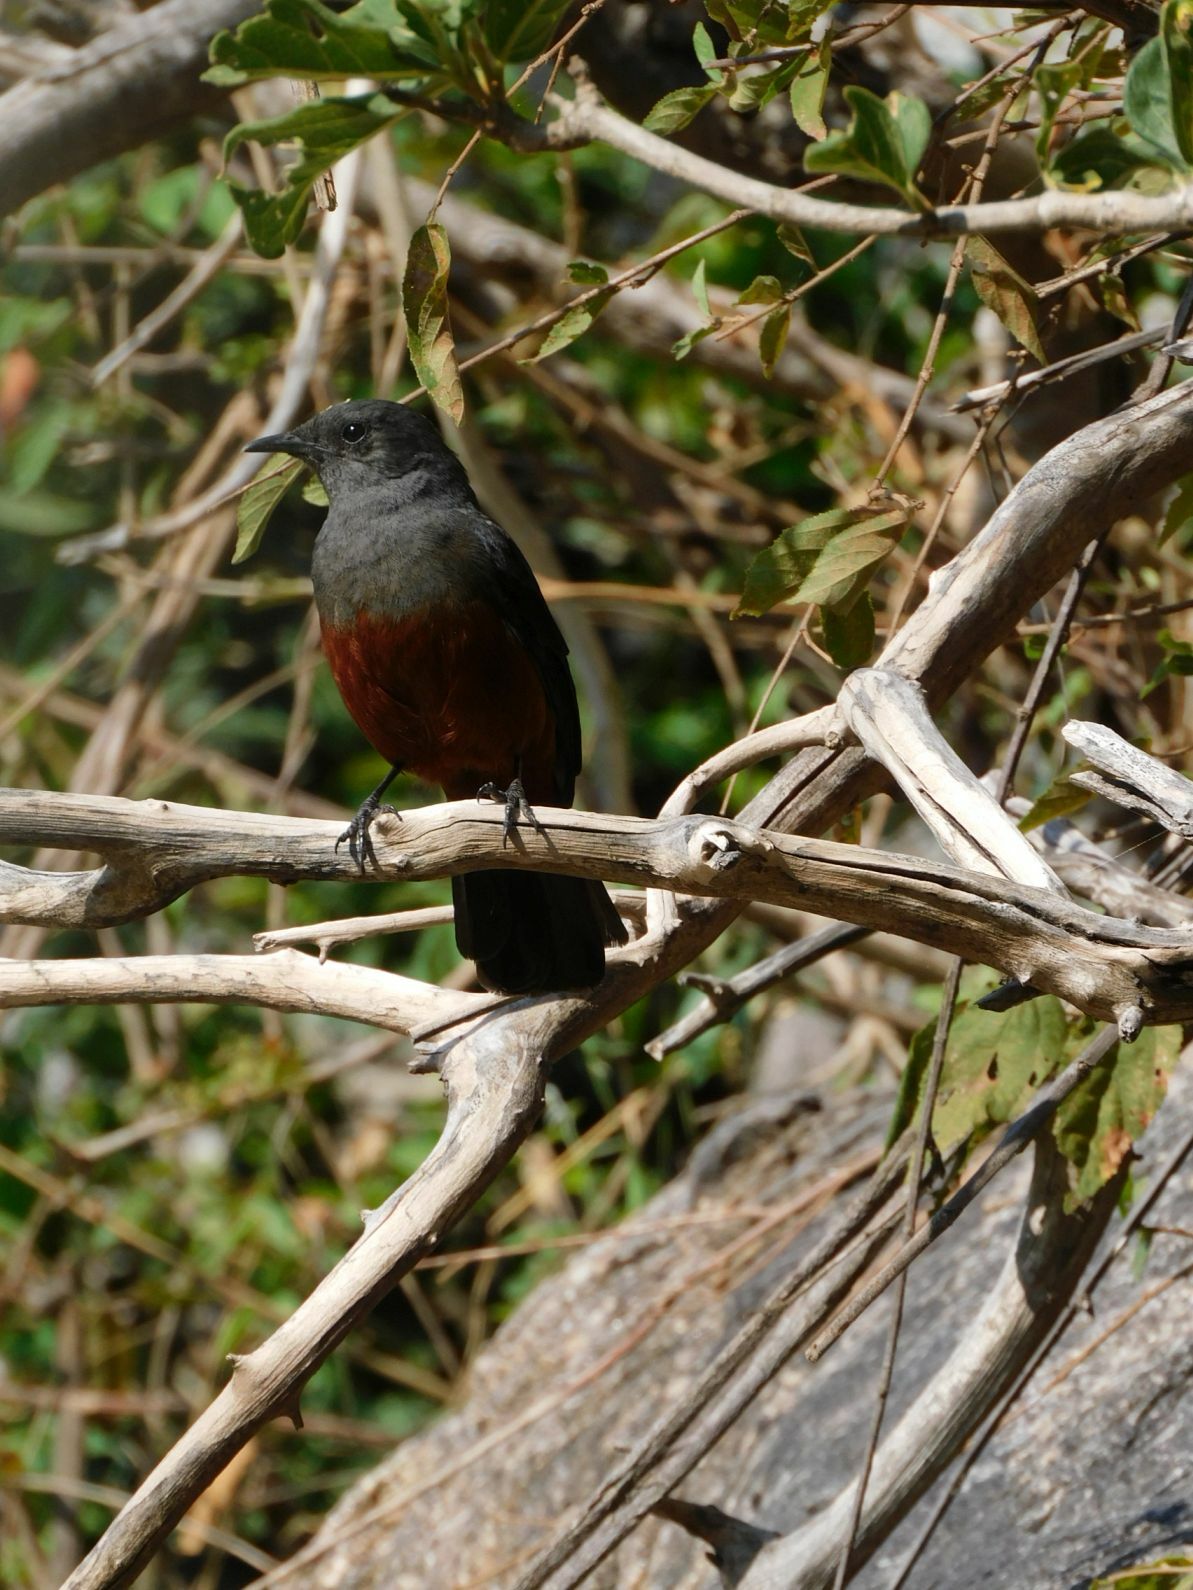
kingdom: Animalia
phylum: Chordata
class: Aves
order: Passeriformes
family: Muscicapidae
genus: Thamnolaea
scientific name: Thamnolaea cinnamomeiventris
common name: Mocking cliff chat
